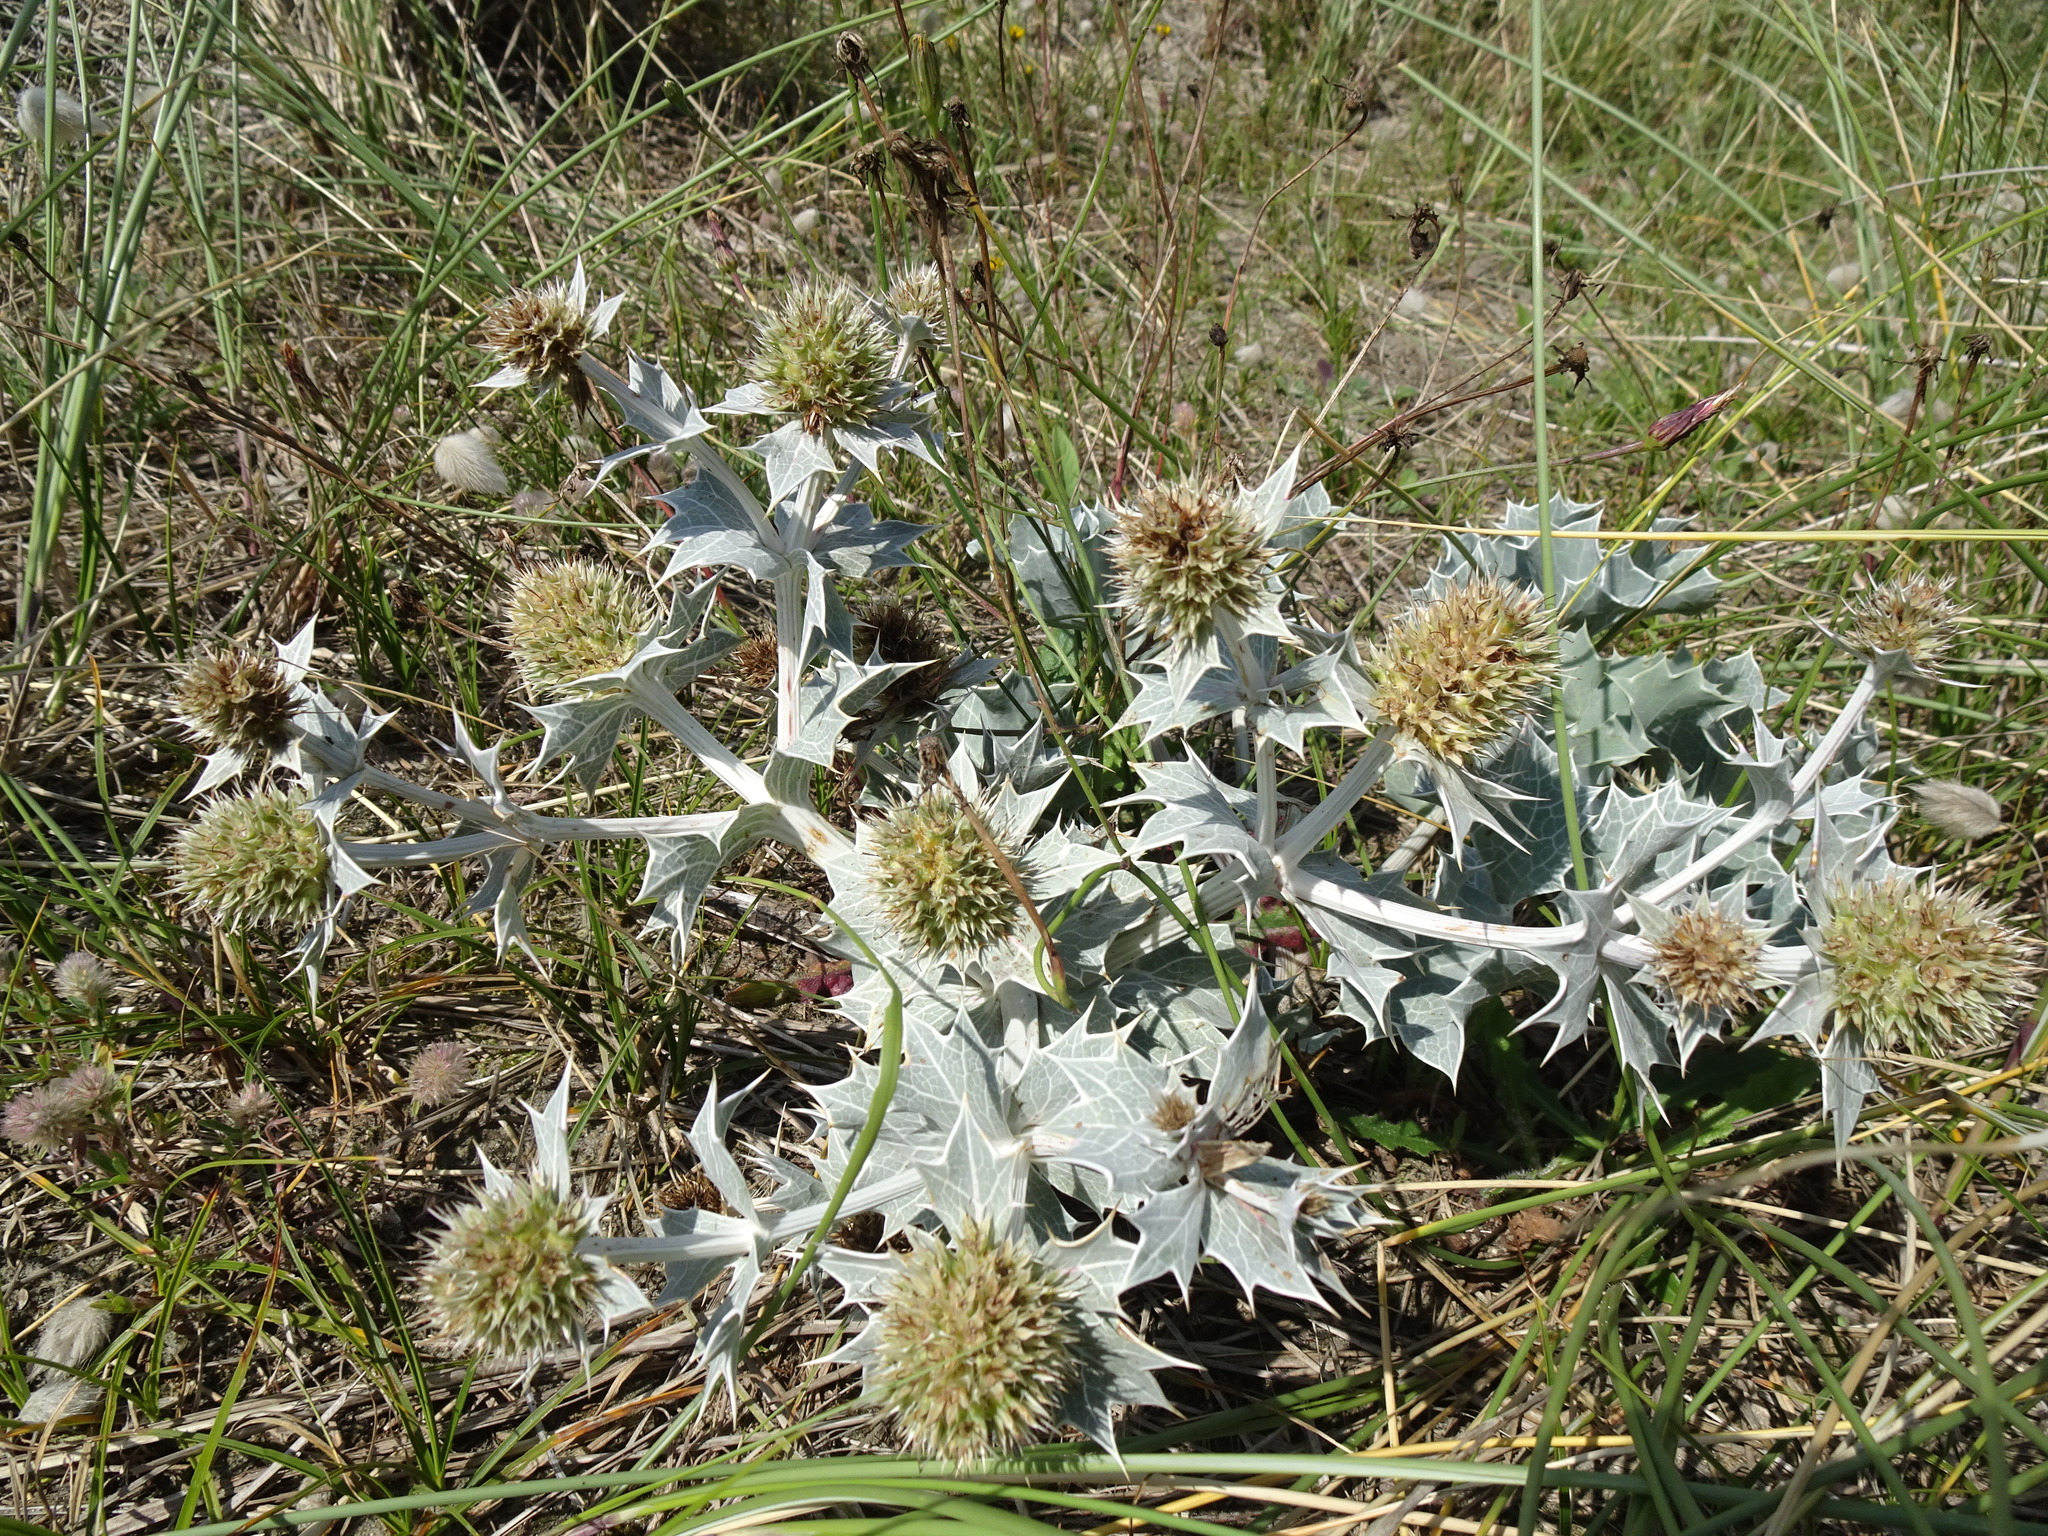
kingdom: Plantae
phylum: Tracheophyta
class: Magnoliopsida
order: Apiales
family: Apiaceae
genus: Eryngium
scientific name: Eryngium maritimum
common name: Sea-holly
